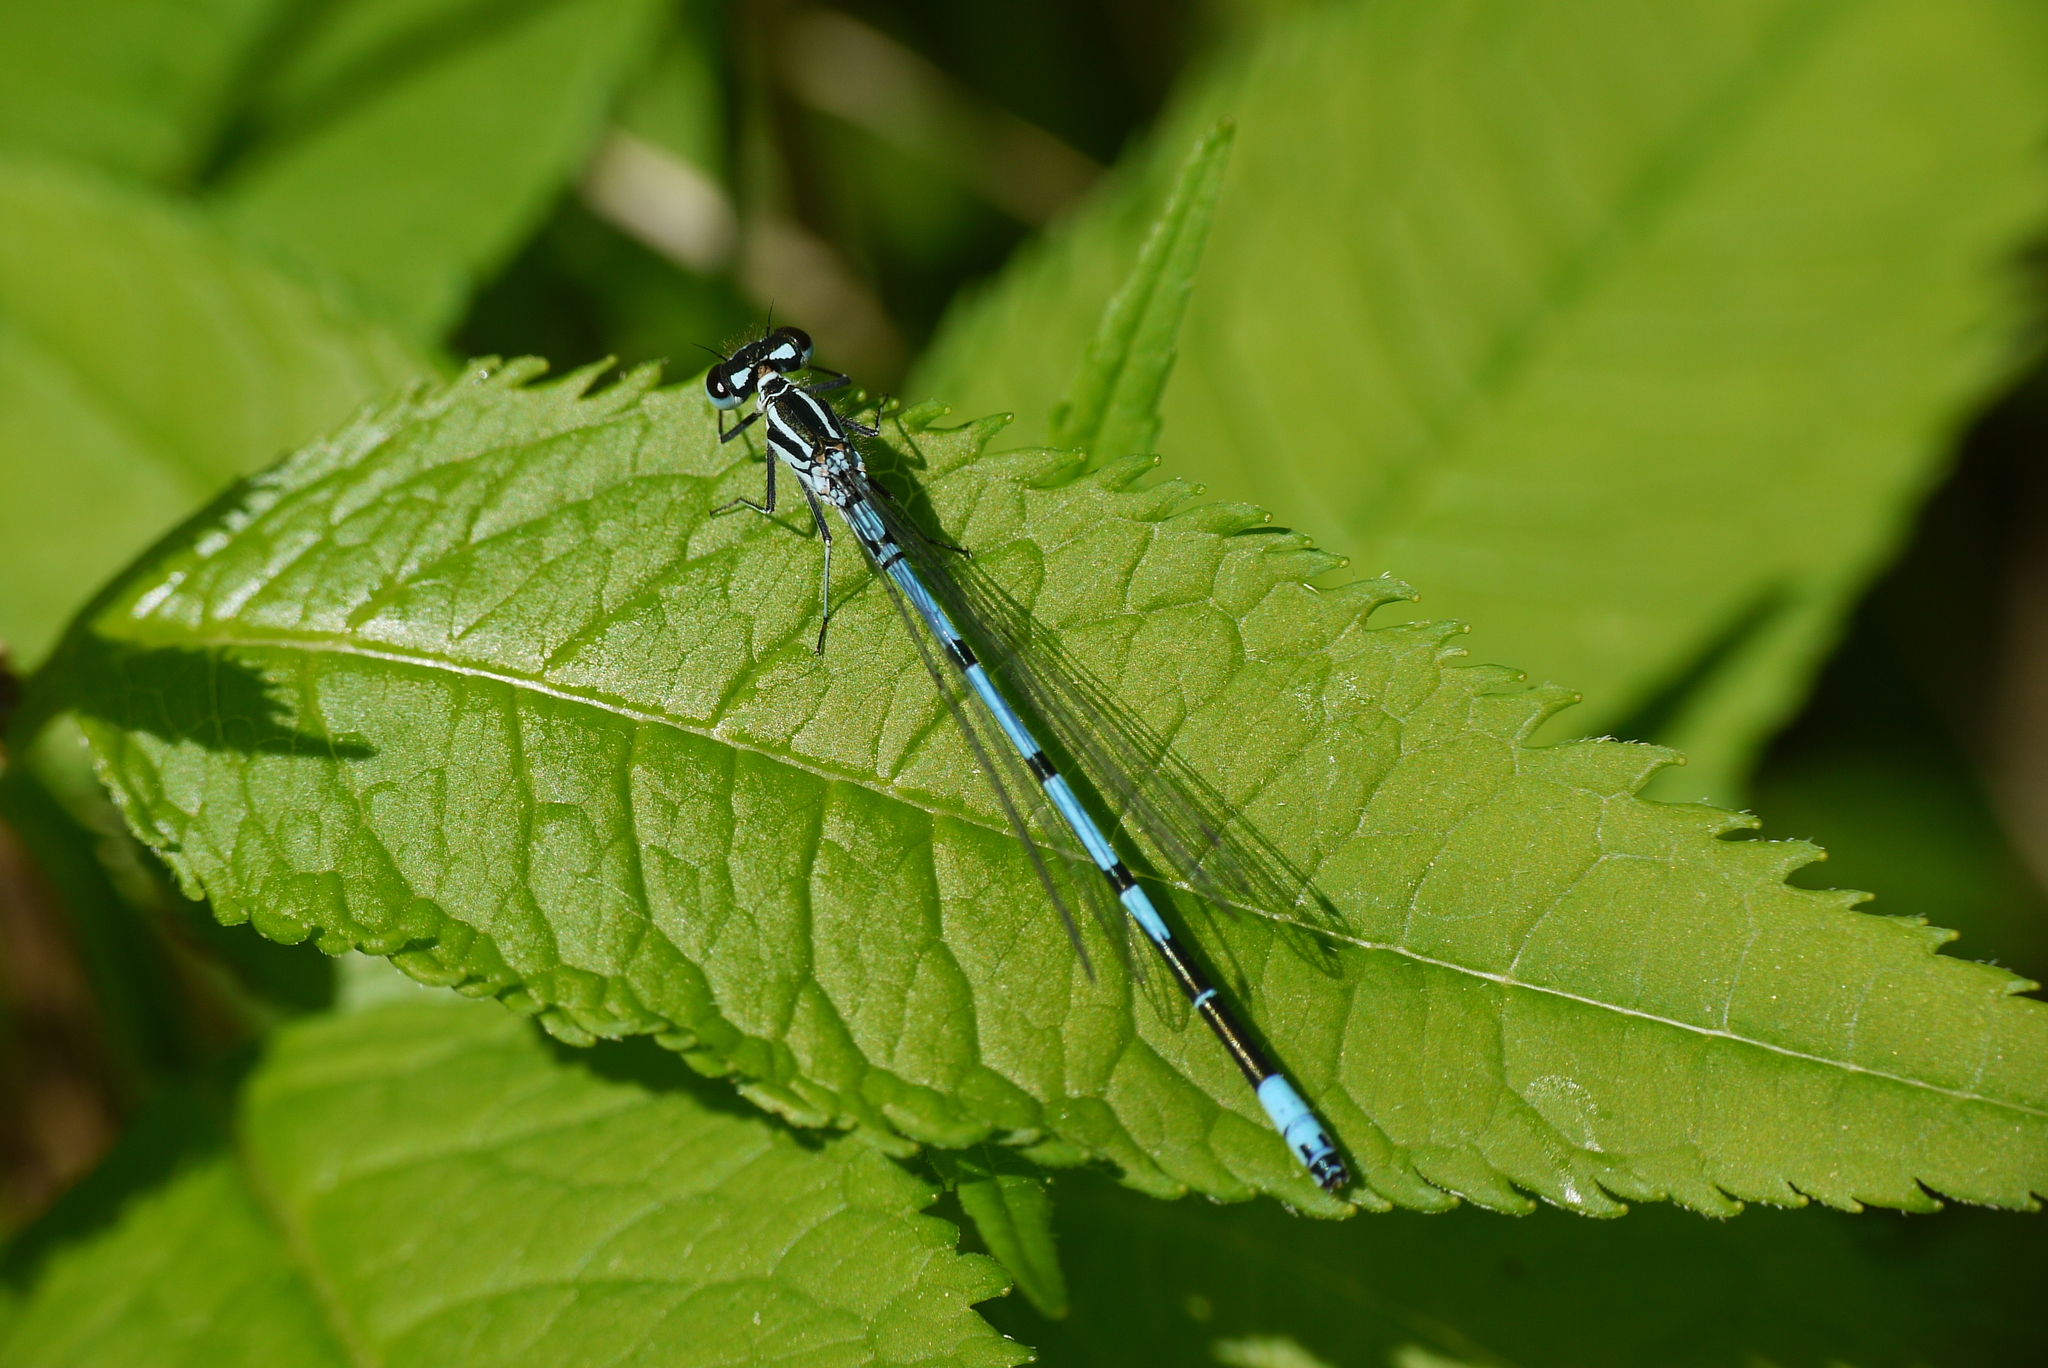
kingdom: Animalia
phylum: Arthropoda
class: Insecta
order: Odonata
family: Coenagrionidae
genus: Coenagrion
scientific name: Coenagrion puella
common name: Azure damselfly
